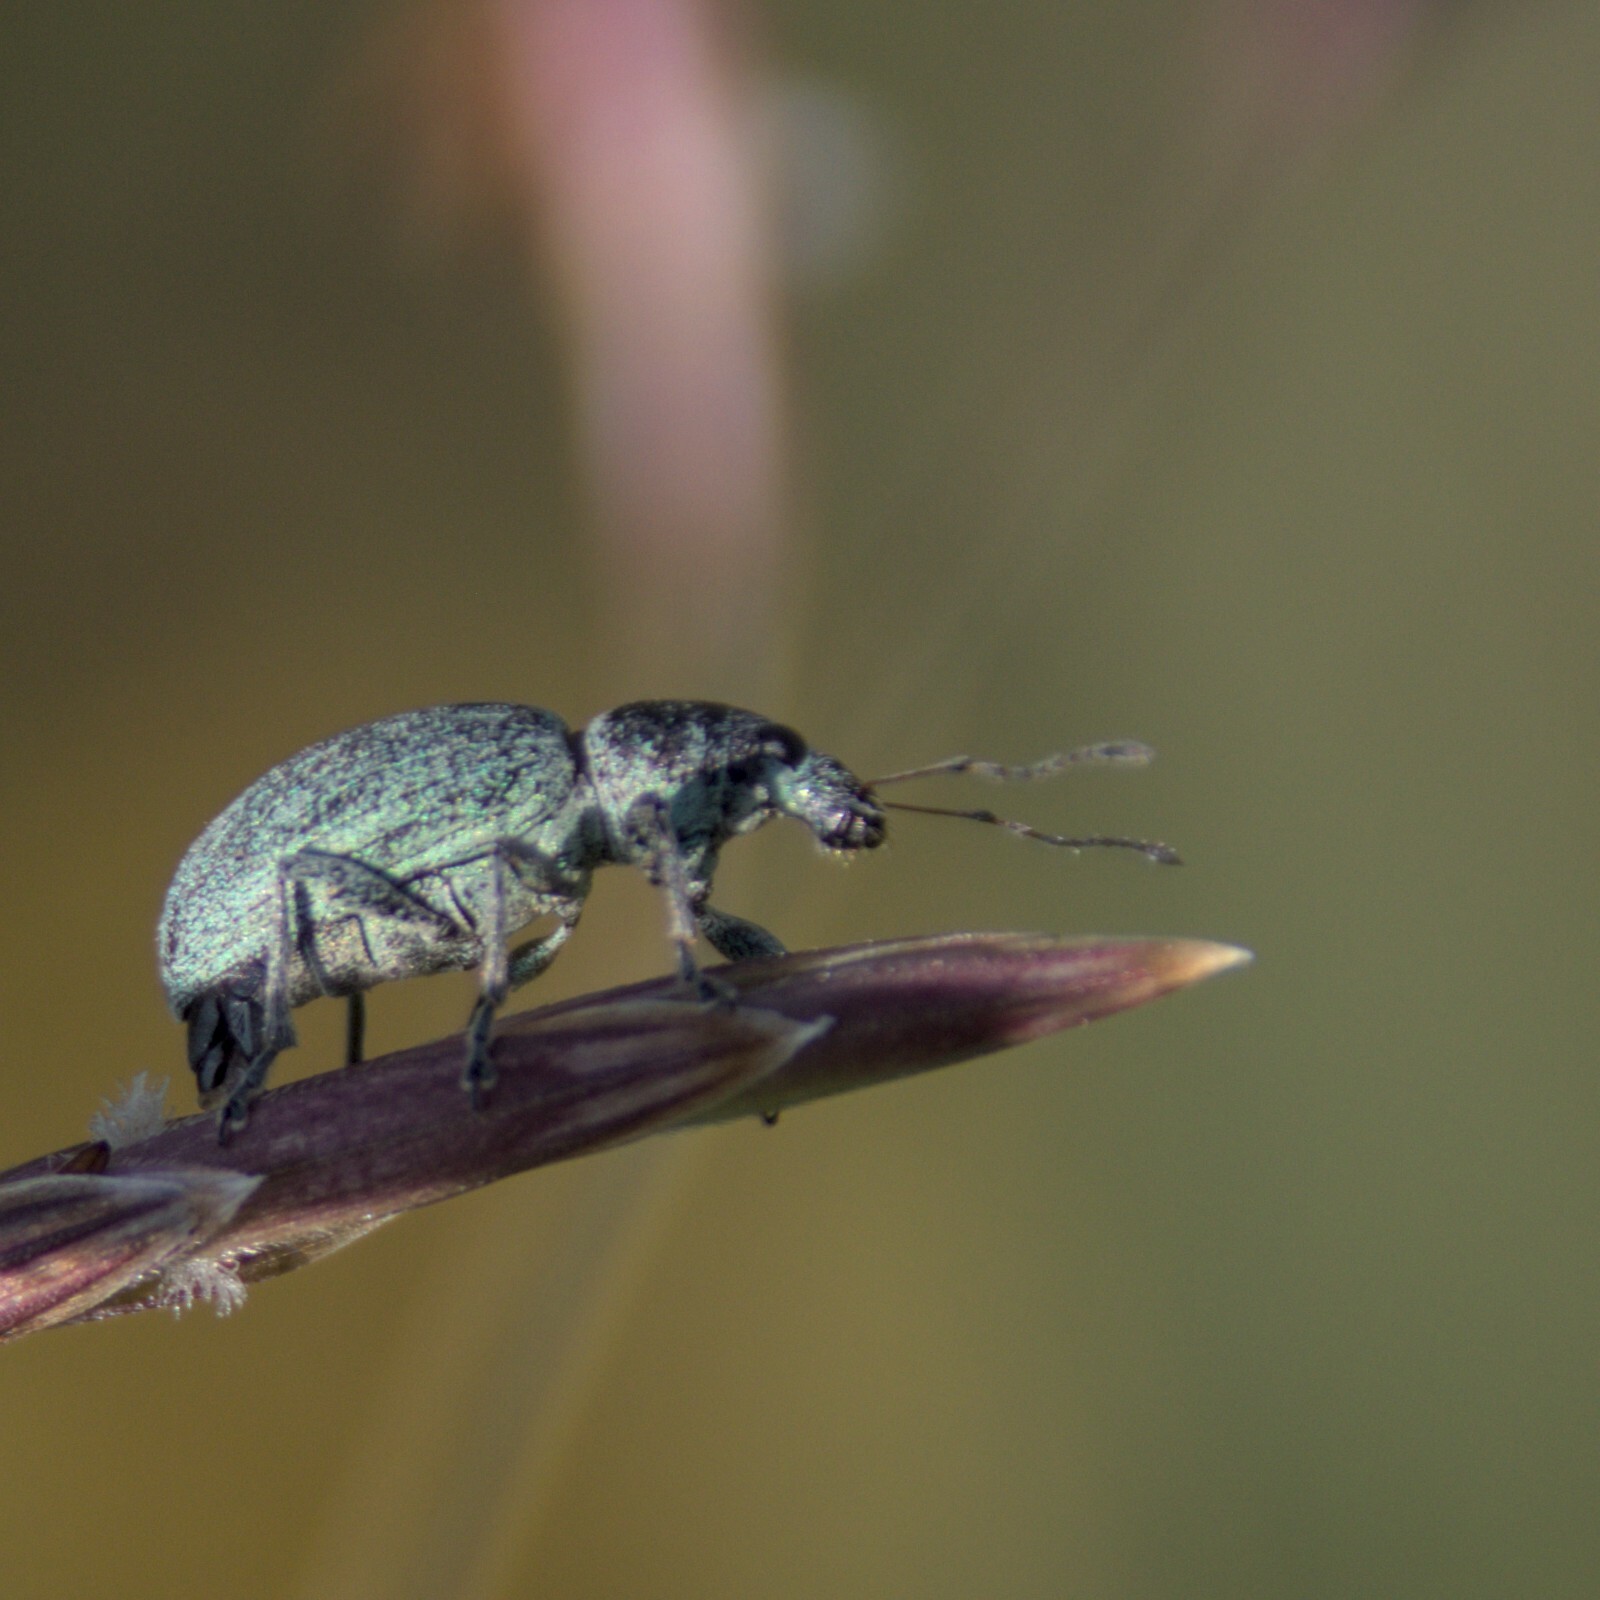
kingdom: Animalia
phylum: Arthropoda
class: Insecta
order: Coleoptera
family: Curculionidae
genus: Eusomus
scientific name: Eusomus ovulum
